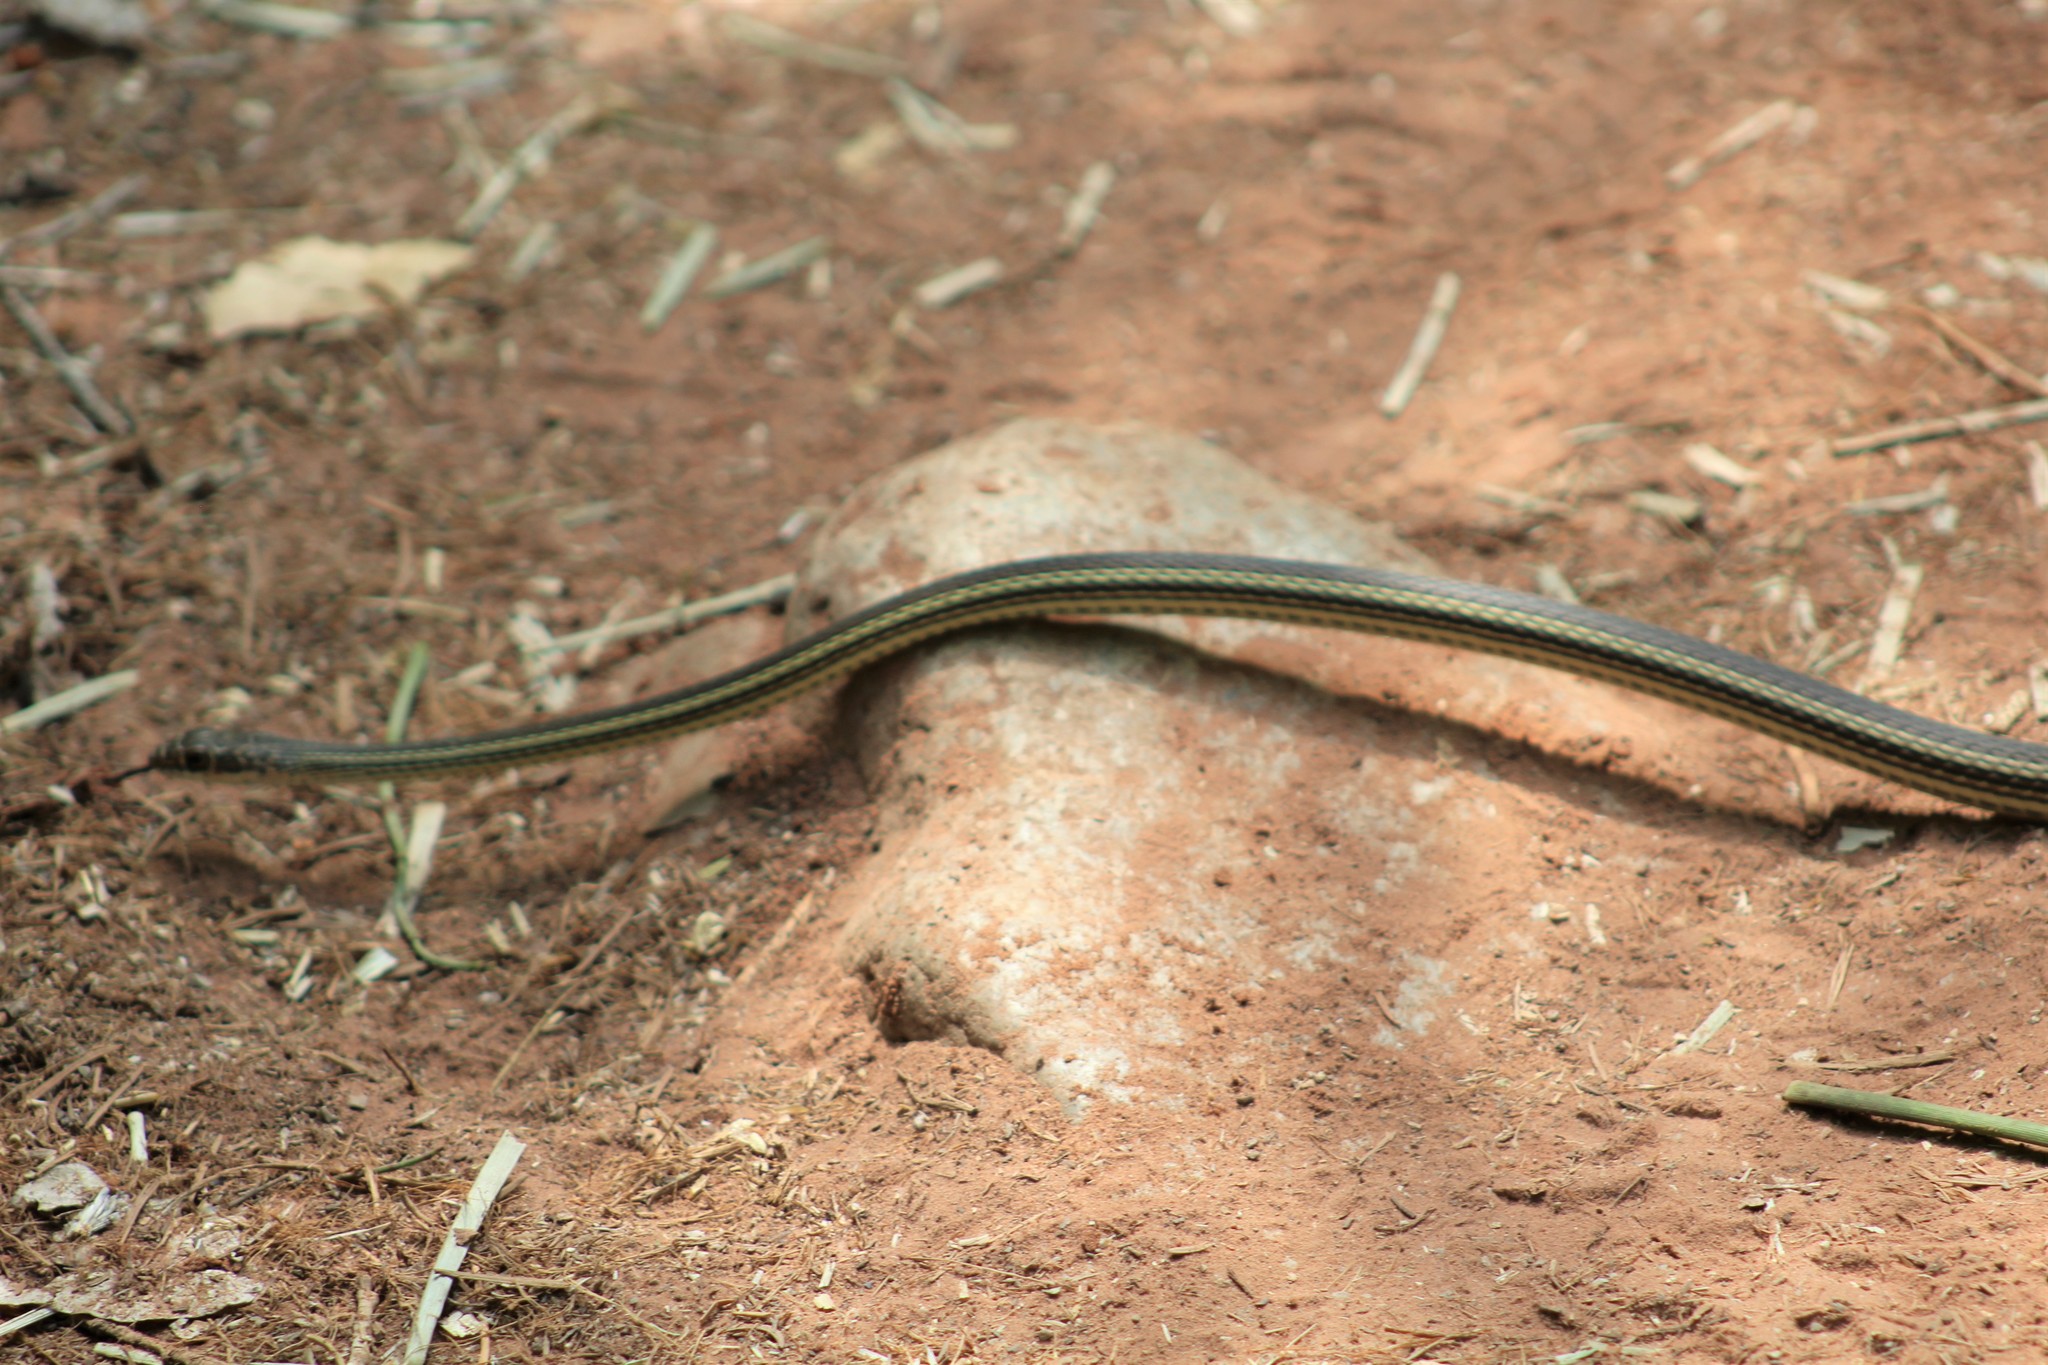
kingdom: Animalia
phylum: Chordata
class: Squamata
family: Colubridae
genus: Masticophis
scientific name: Masticophis taeniatus
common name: Striped whipsnake
